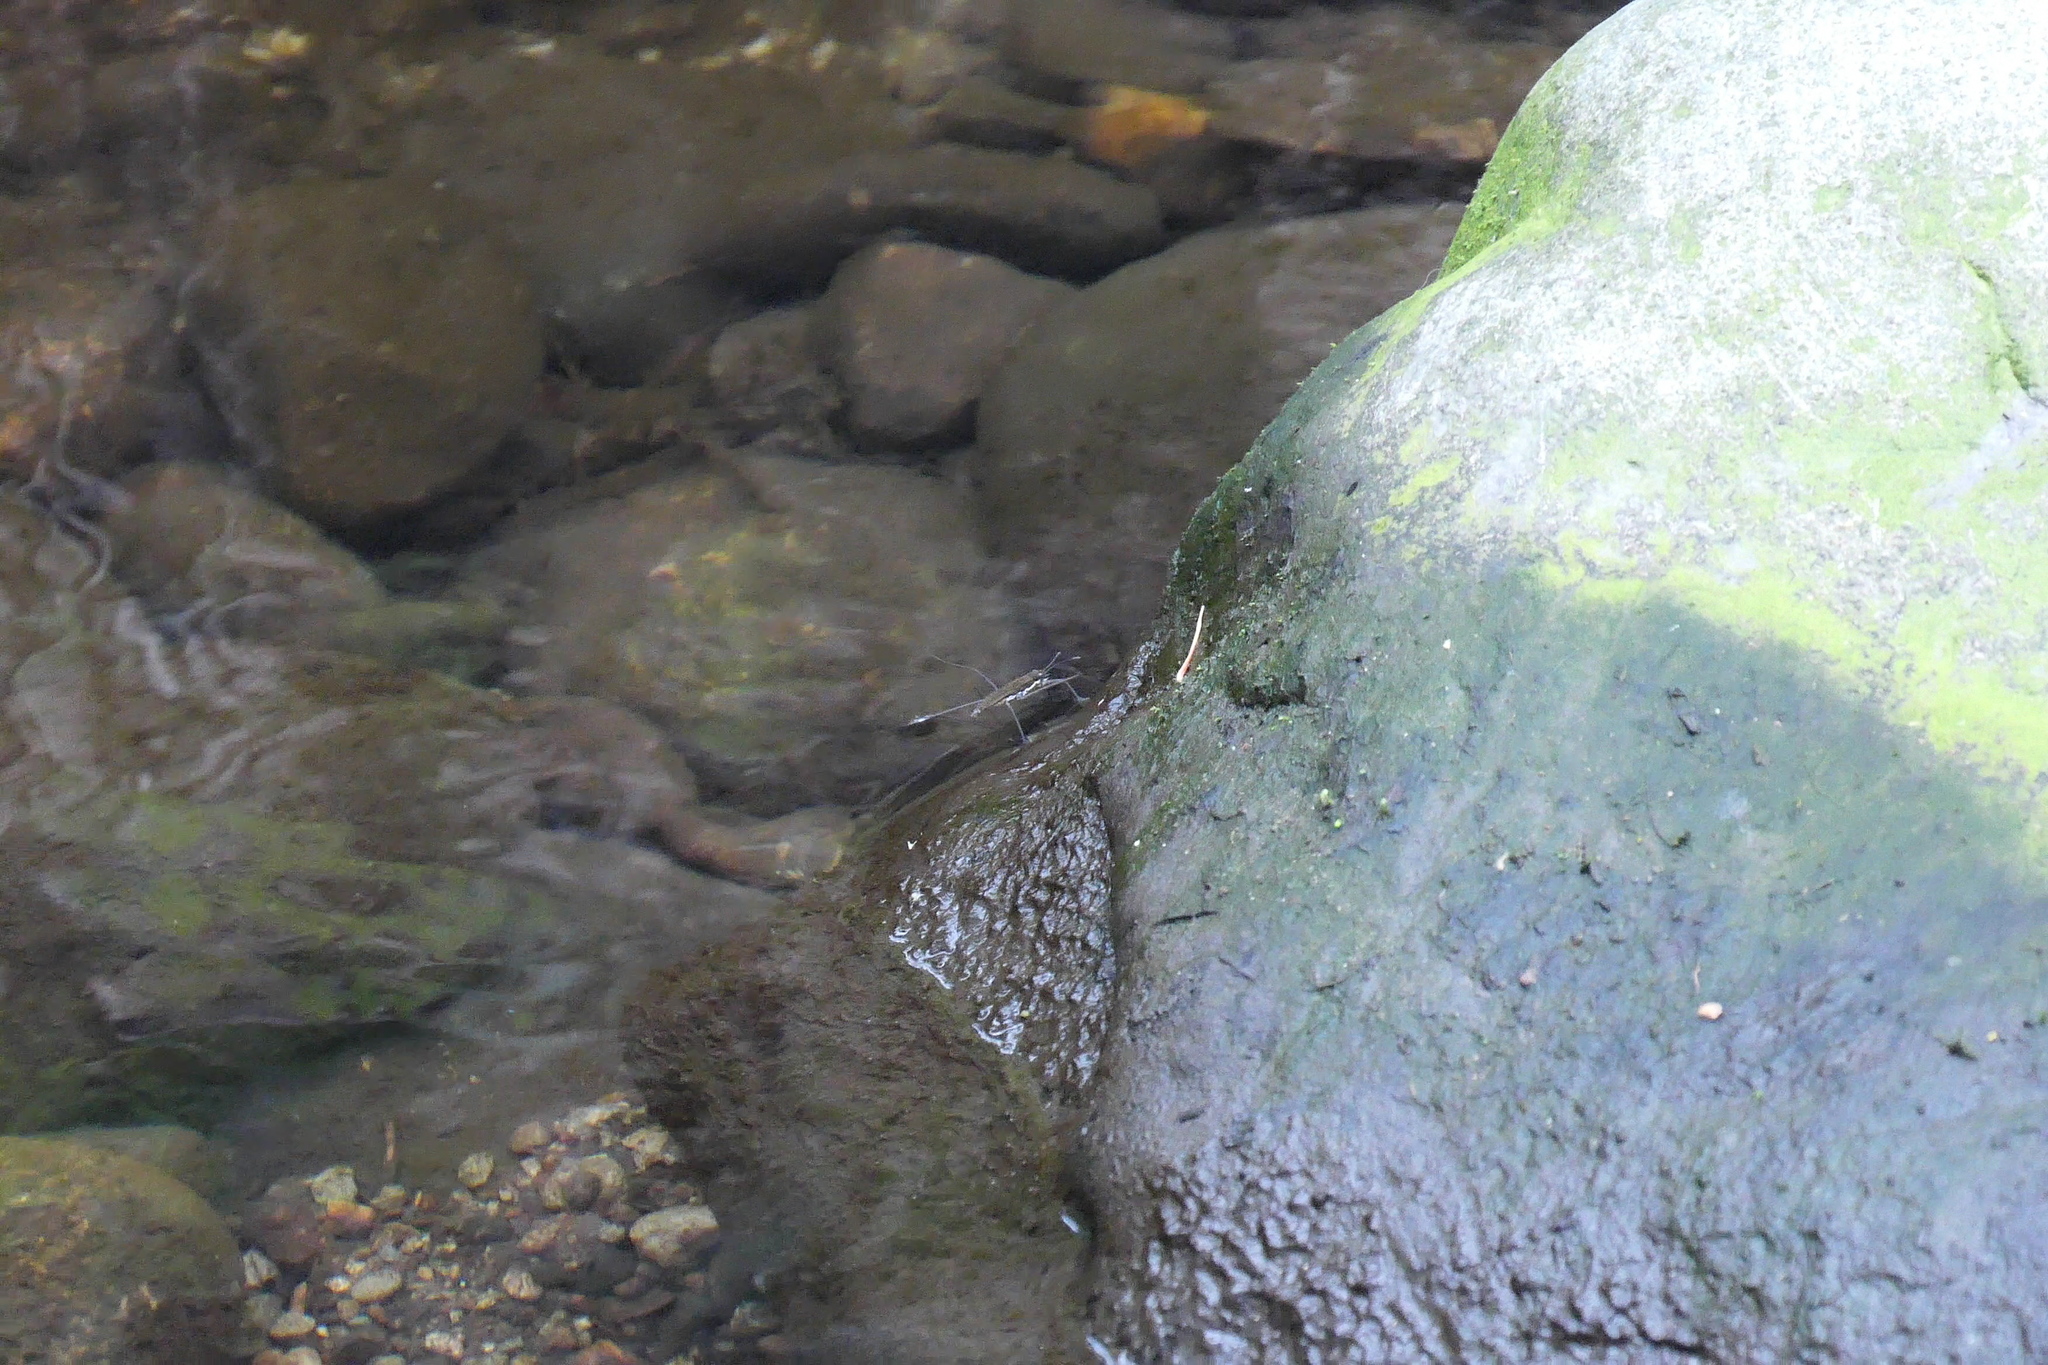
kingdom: Animalia
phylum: Arthropoda
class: Insecta
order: Hemiptera
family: Gerridae
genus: Aquarius
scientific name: Aquarius remigis
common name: Common water strider
